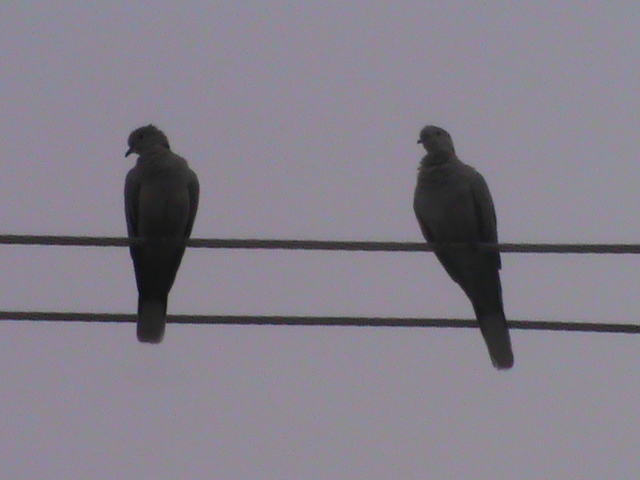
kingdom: Animalia
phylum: Chordata
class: Aves
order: Columbiformes
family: Columbidae
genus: Streptopelia
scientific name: Streptopelia decaocto
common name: Eurasian collared dove
